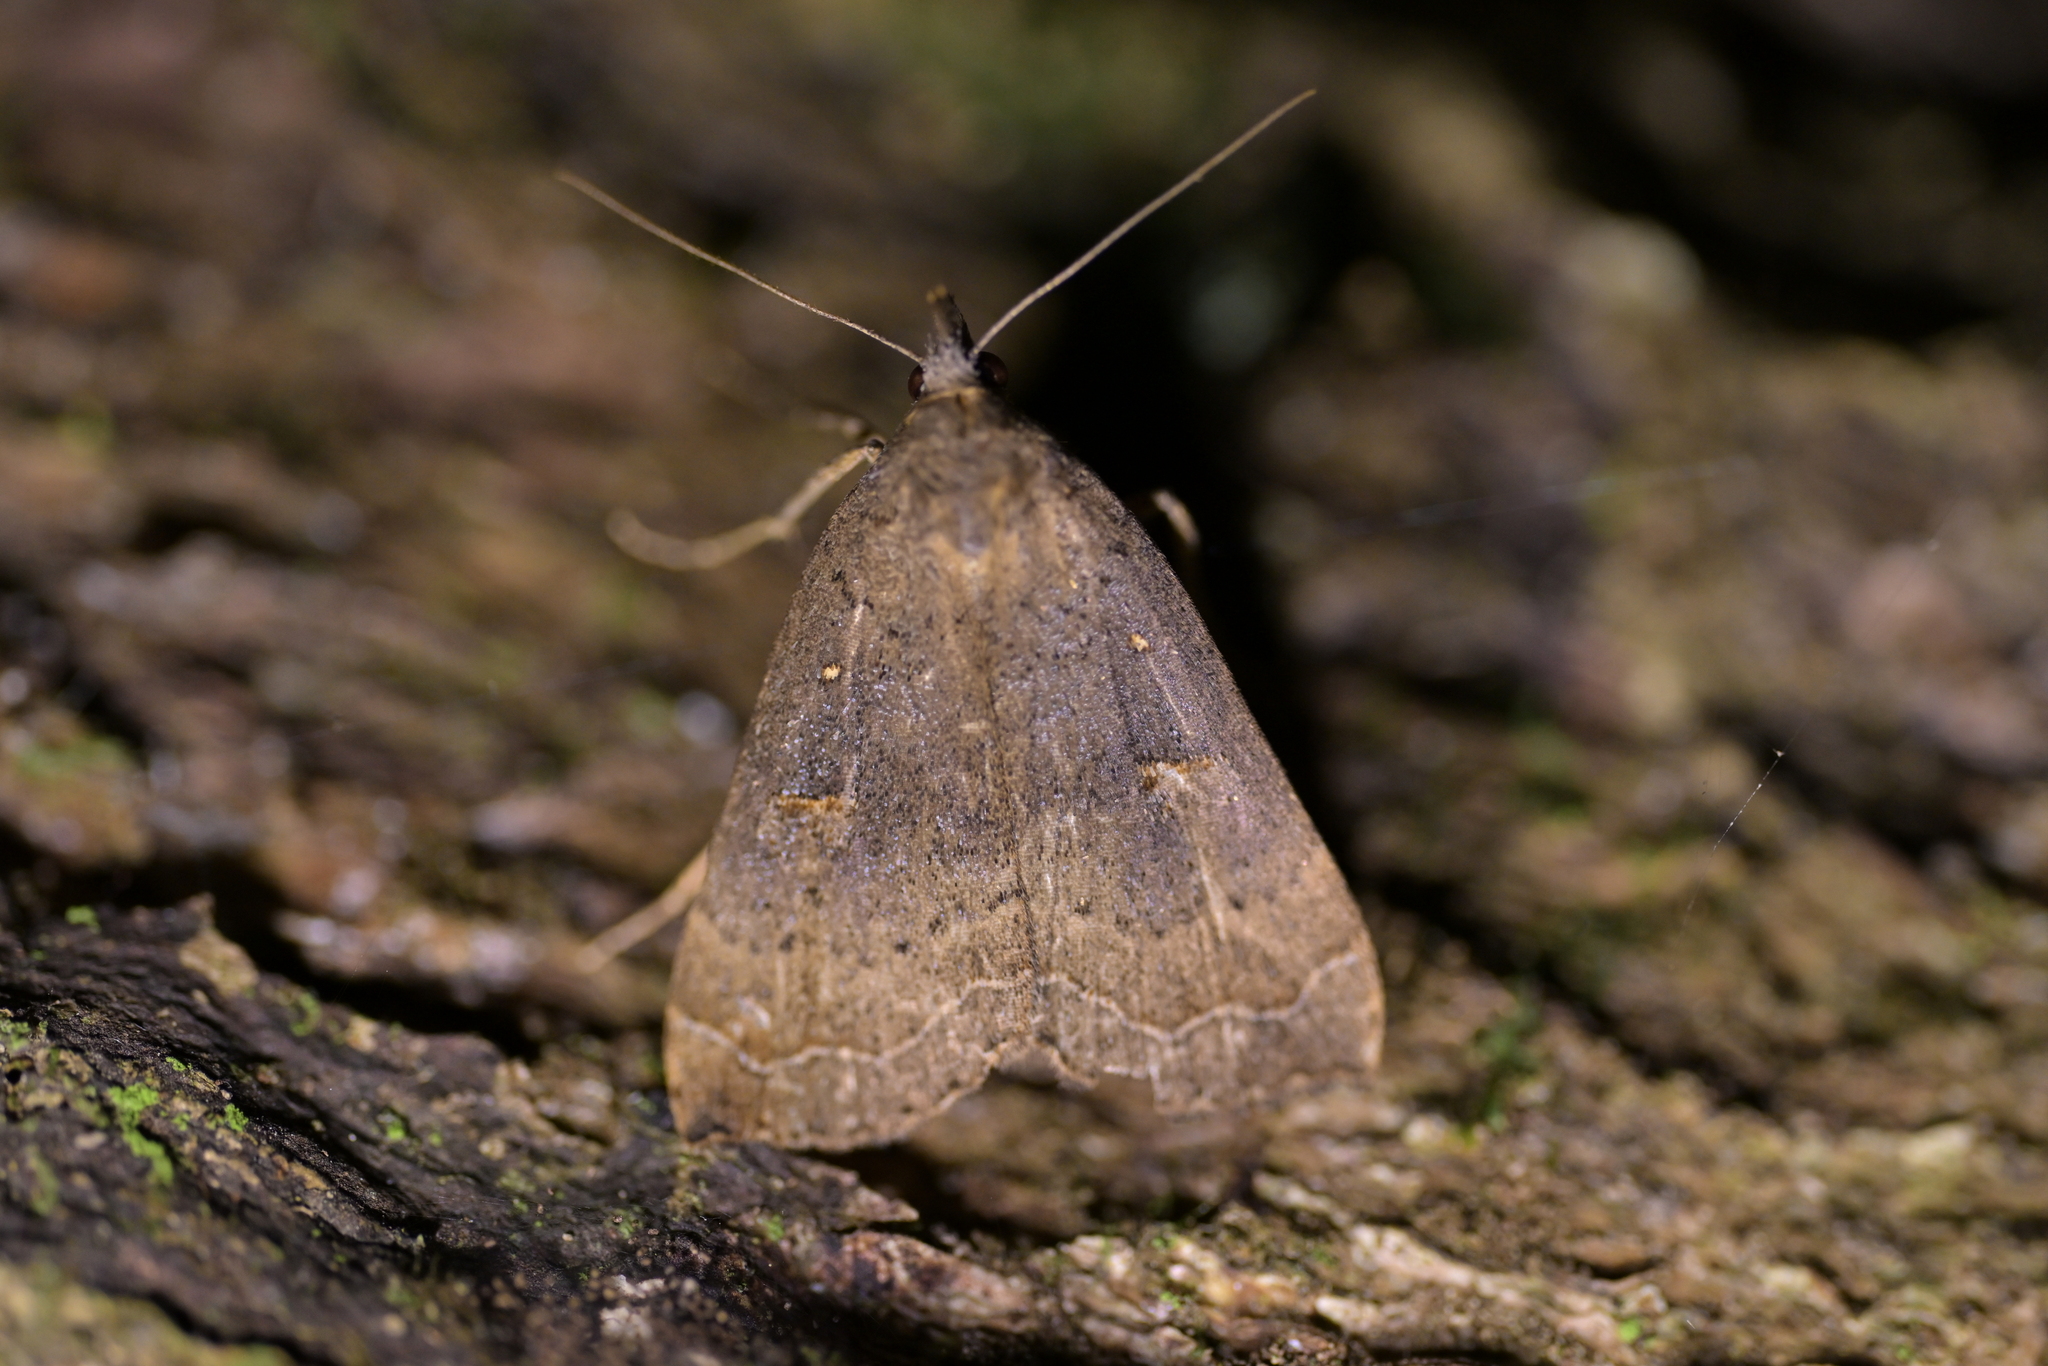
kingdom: Animalia
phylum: Arthropoda
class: Insecta
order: Lepidoptera
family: Erebidae
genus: Rhapsa
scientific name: Rhapsa scotosialis
